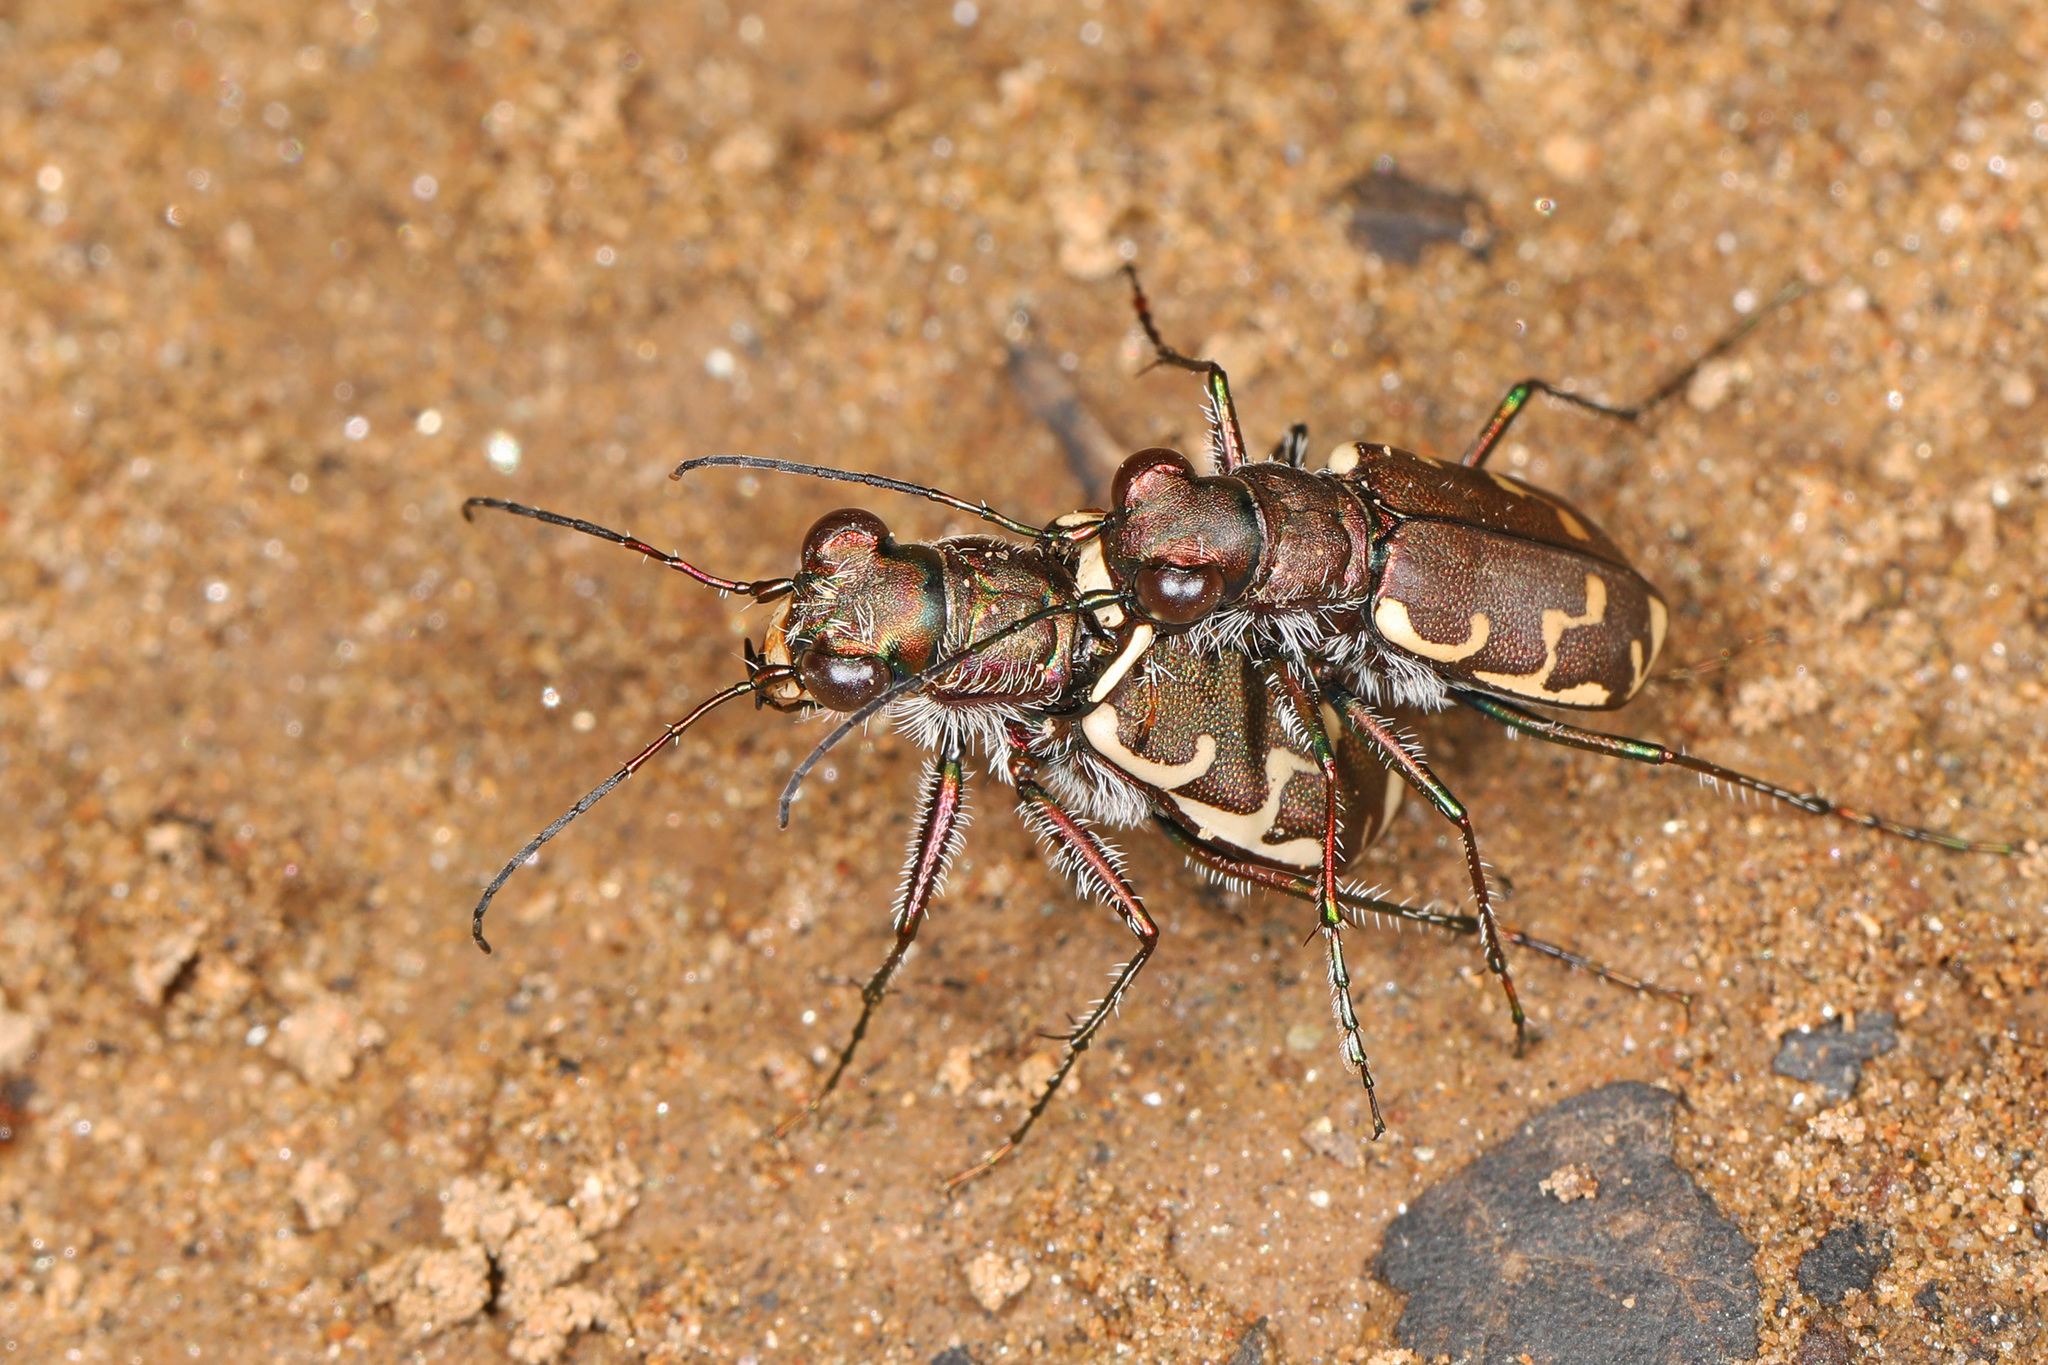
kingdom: Animalia
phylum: Arthropoda
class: Insecta
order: Coleoptera
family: Carabidae
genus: Cicindela
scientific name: Cicindela repanda
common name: Bronzed tiger beetle
